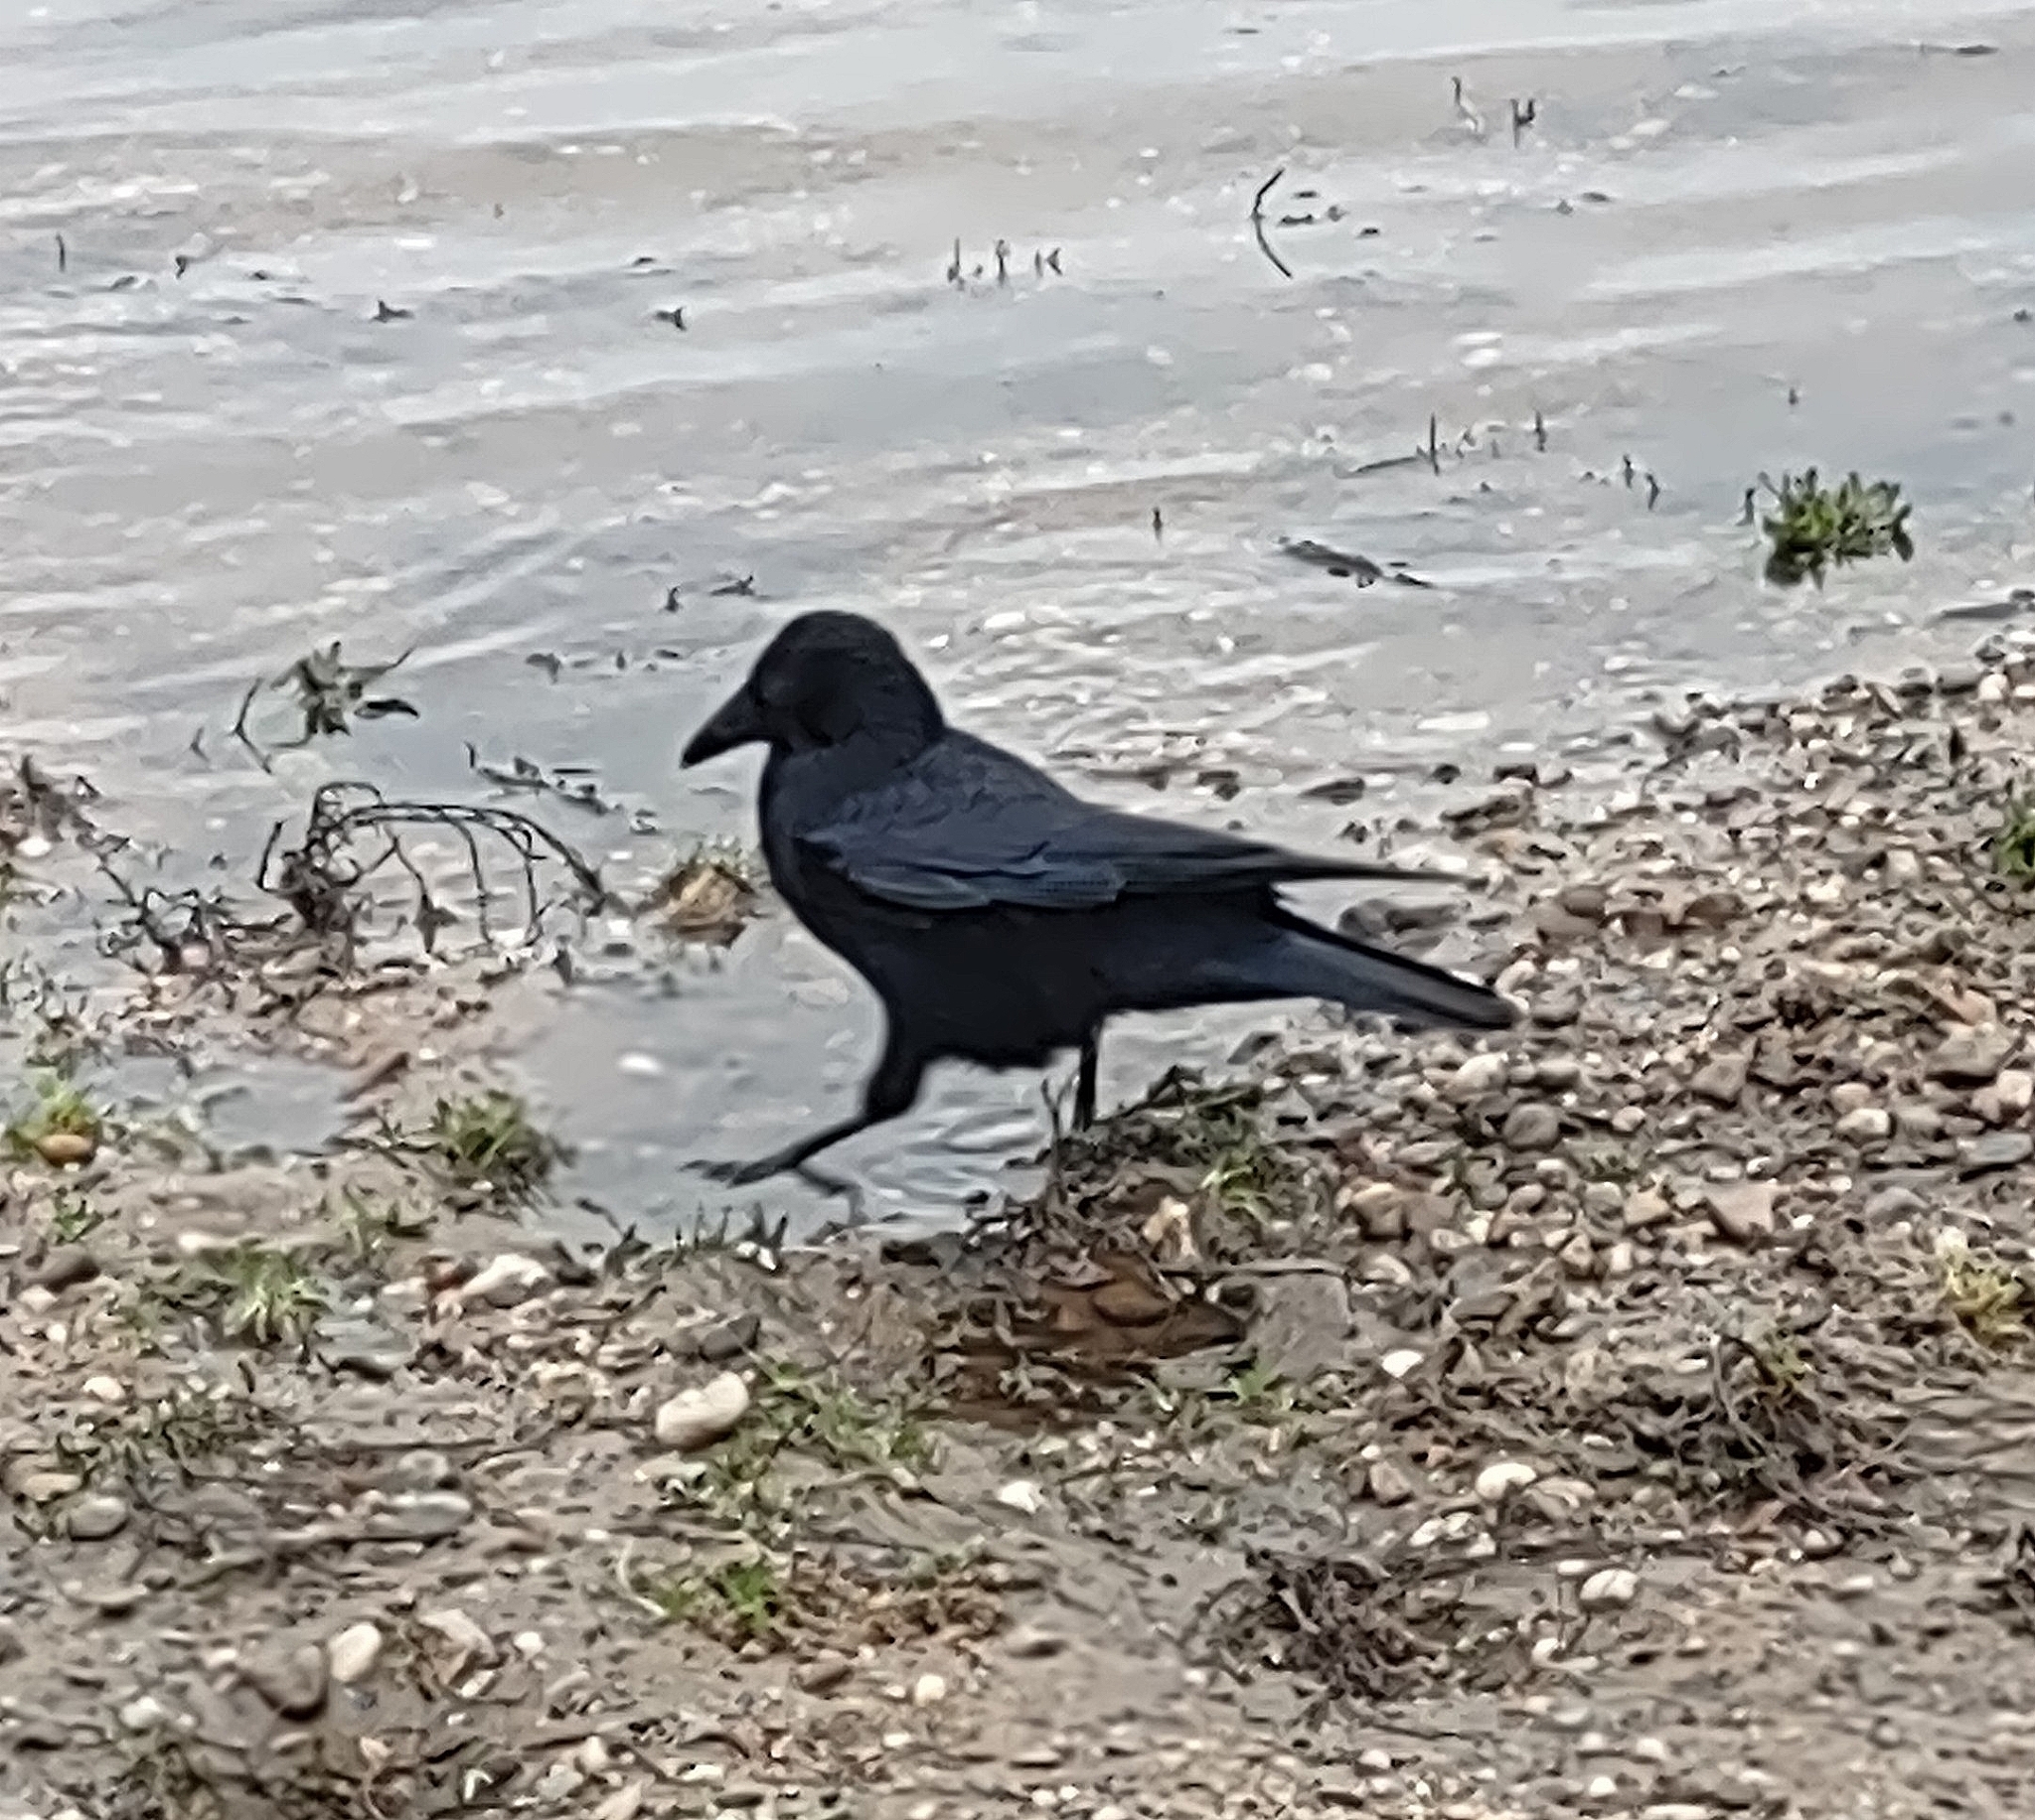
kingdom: Animalia
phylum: Chordata
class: Aves
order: Passeriformes
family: Corvidae
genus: Corvus
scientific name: Corvus corone
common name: Carrion crow
